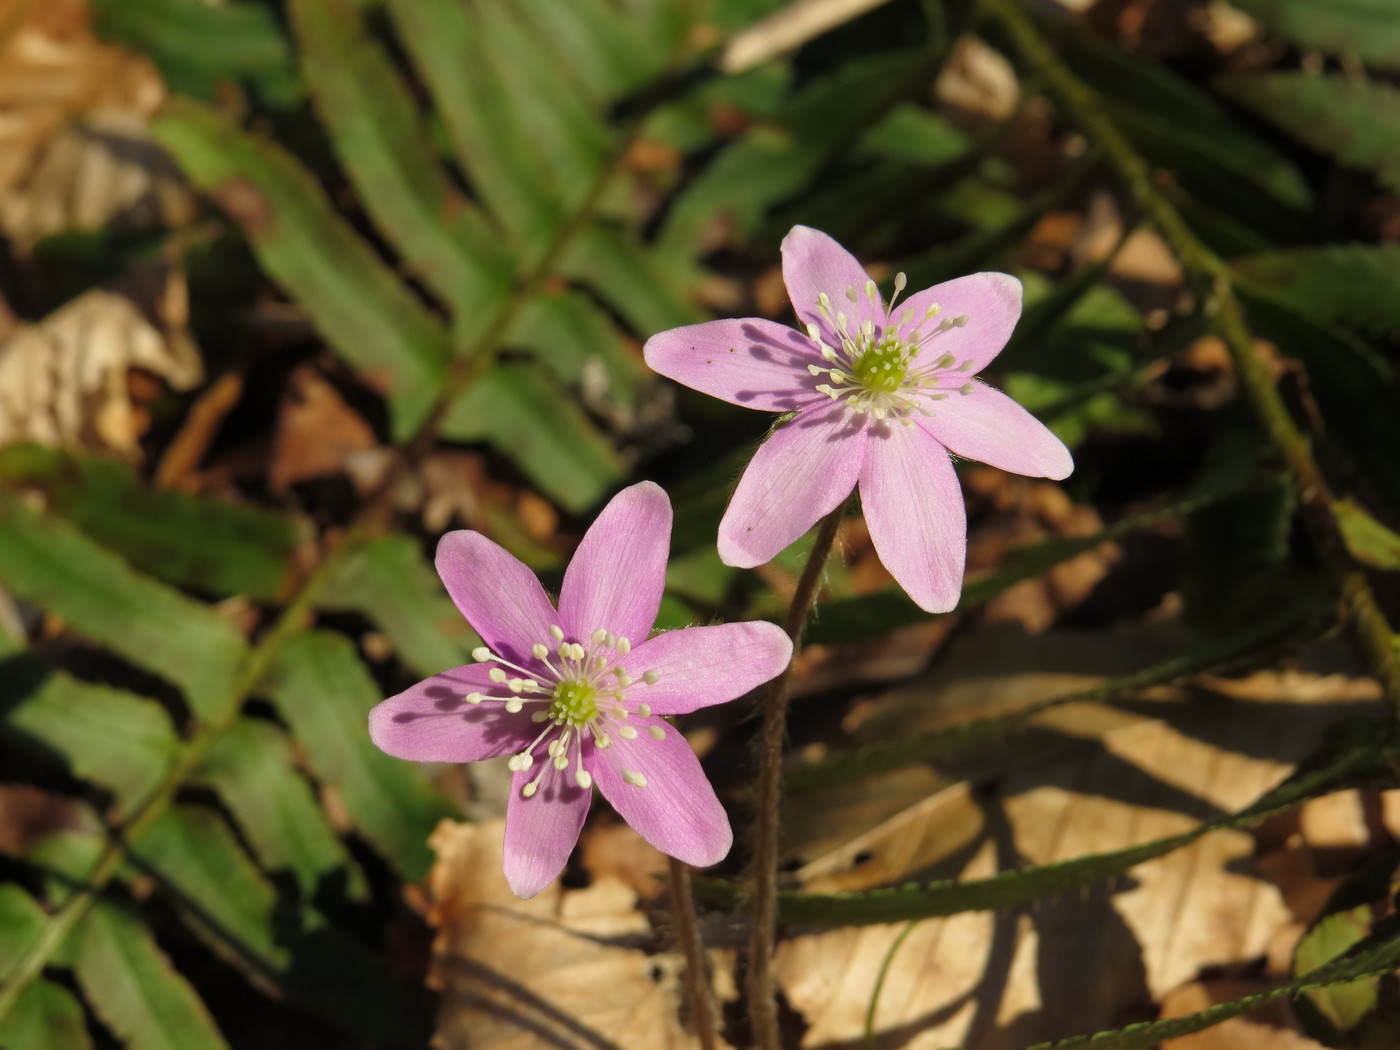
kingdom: Plantae
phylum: Tracheophyta
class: Magnoliopsida
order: Ranunculales
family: Ranunculaceae
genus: Hepatica
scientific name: Hepatica acutiloba
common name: Sharp-lobed hepatica
